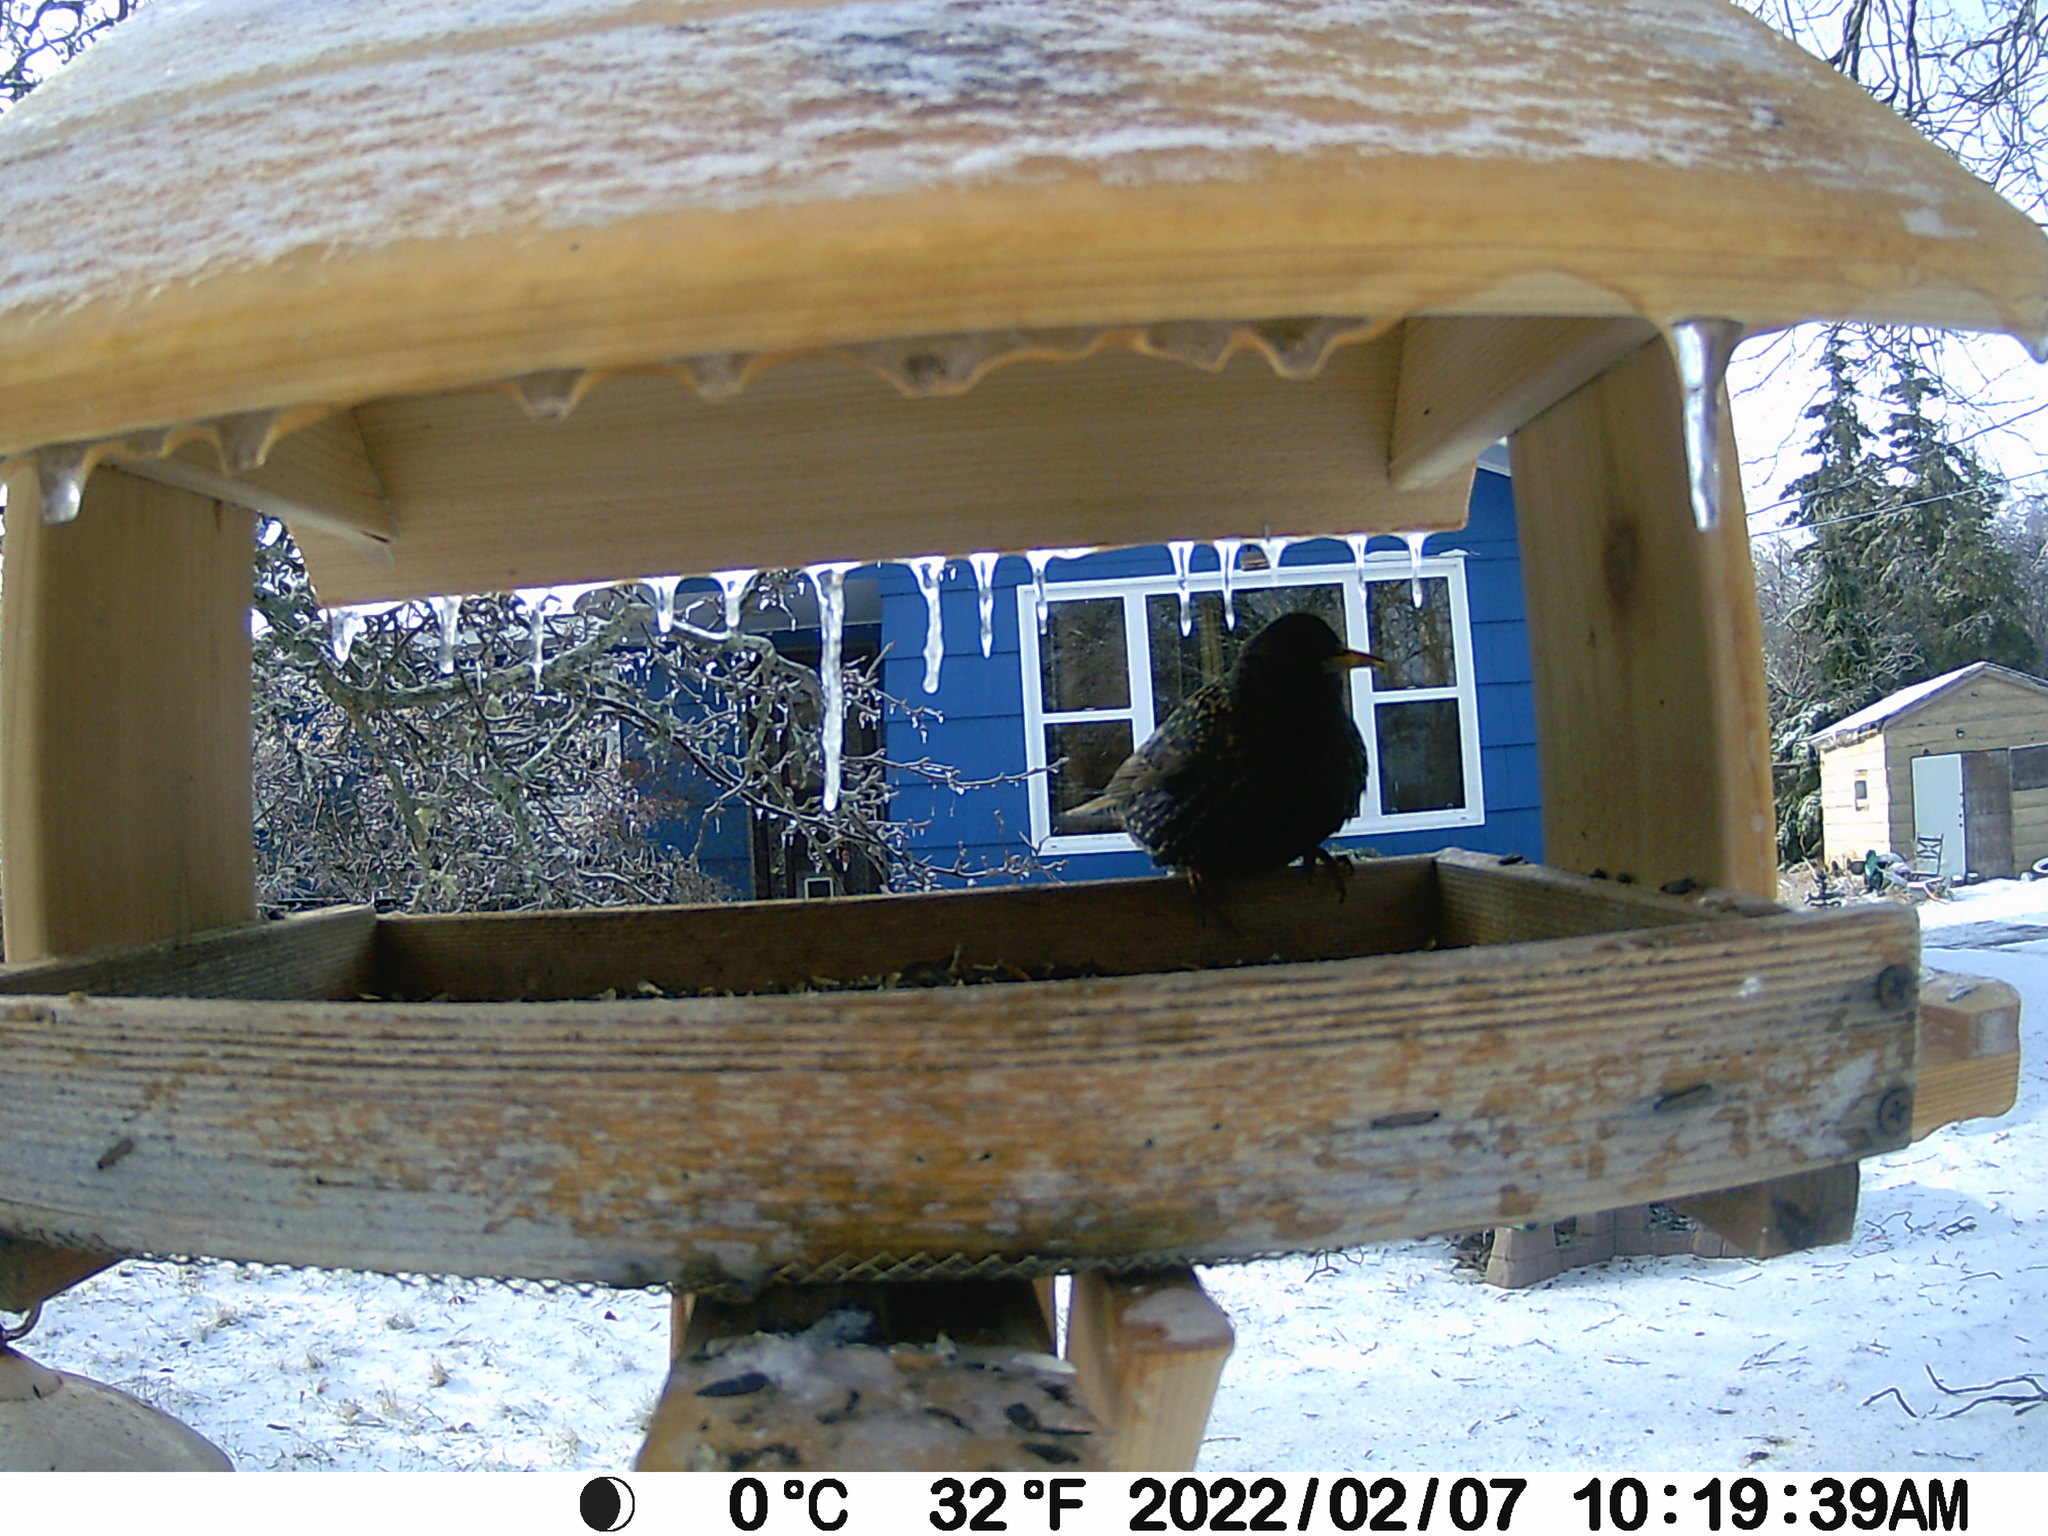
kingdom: Animalia
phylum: Chordata
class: Aves
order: Passeriformes
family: Sturnidae
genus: Sturnus
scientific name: Sturnus vulgaris
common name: Common starling
